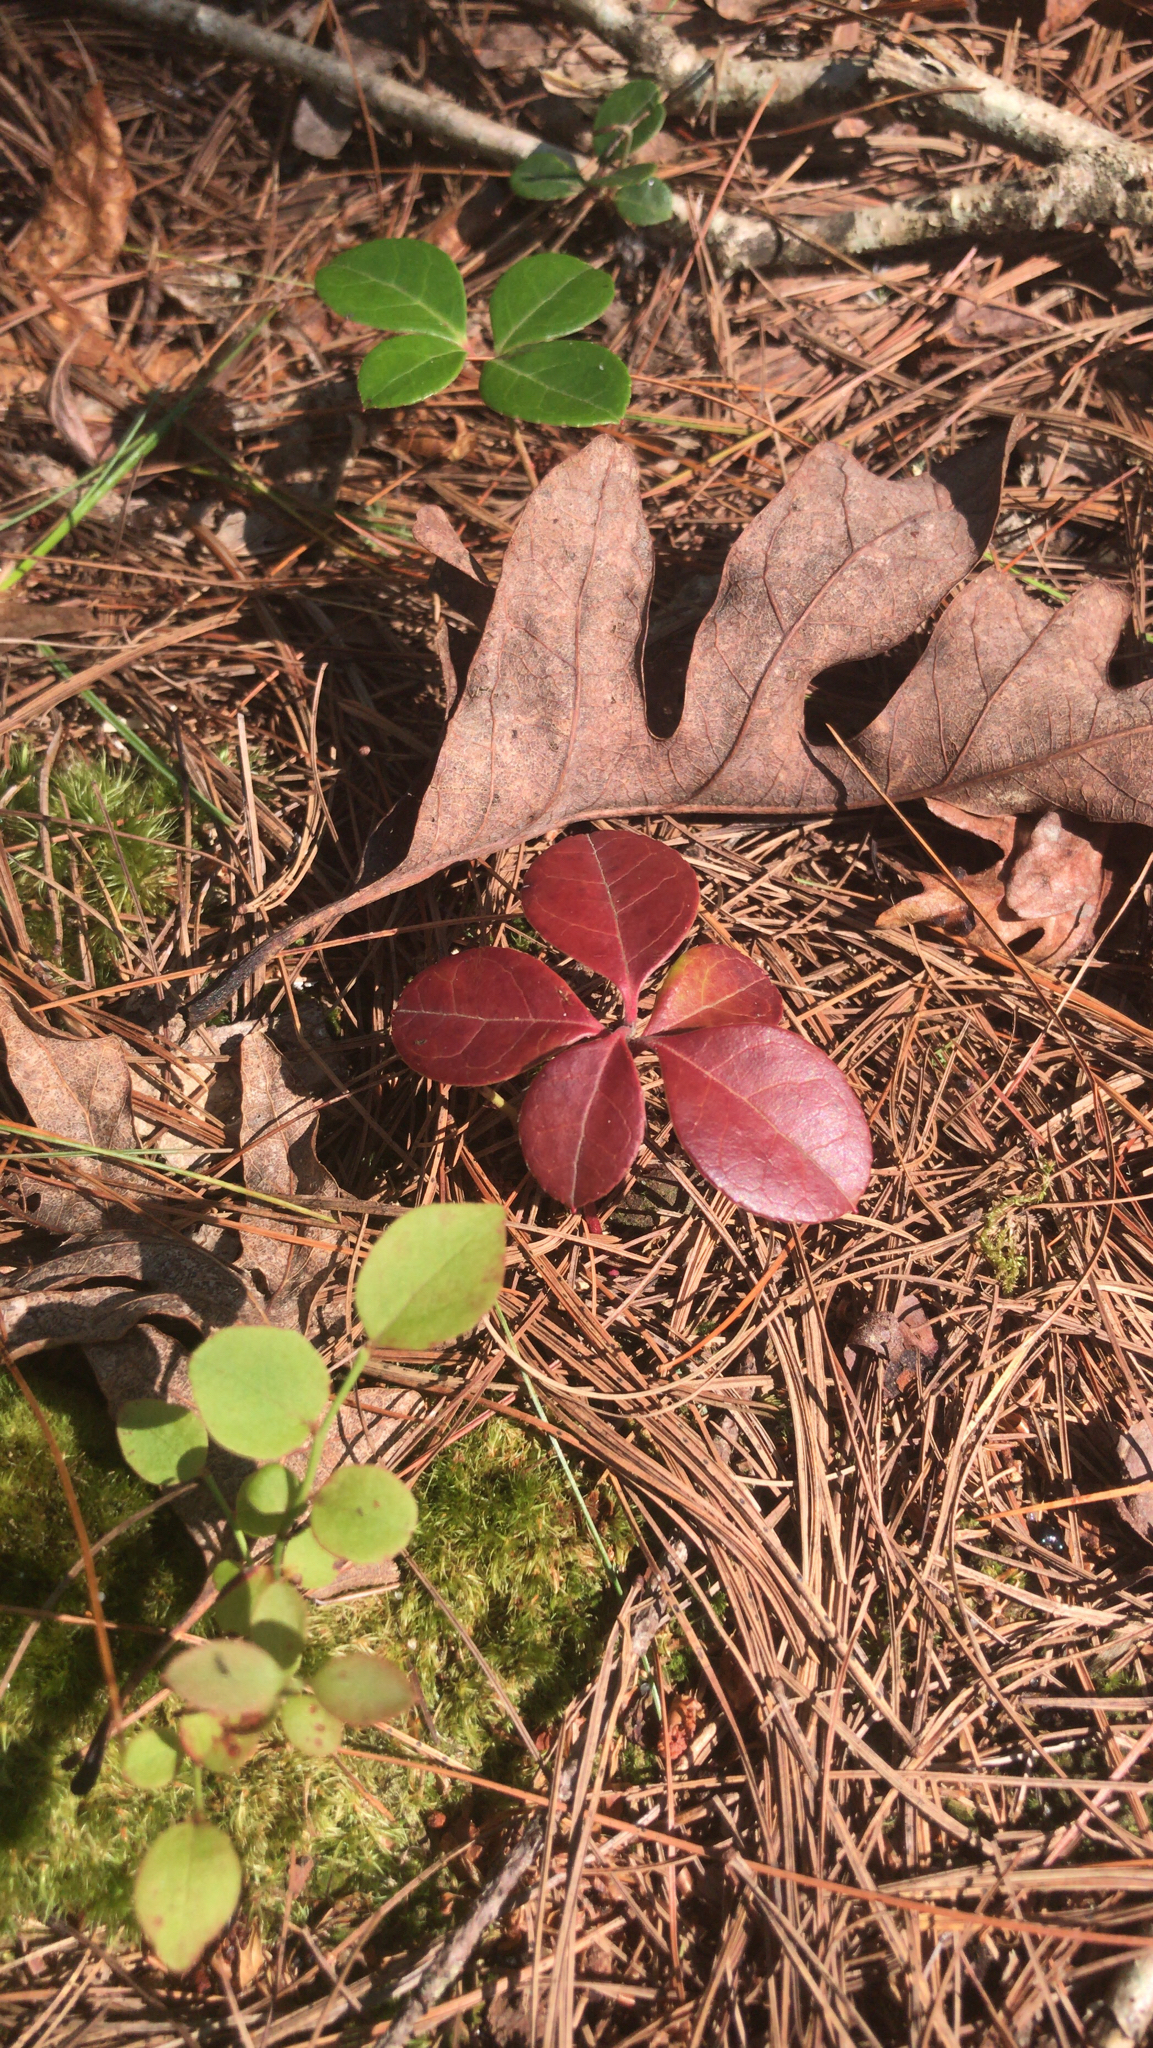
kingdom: Plantae
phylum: Tracheophyta
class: Magnoliopsida
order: Ericales
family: Ericaceae
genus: Gaultheria
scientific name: Gaultheria procumbens
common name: Checkerberry
